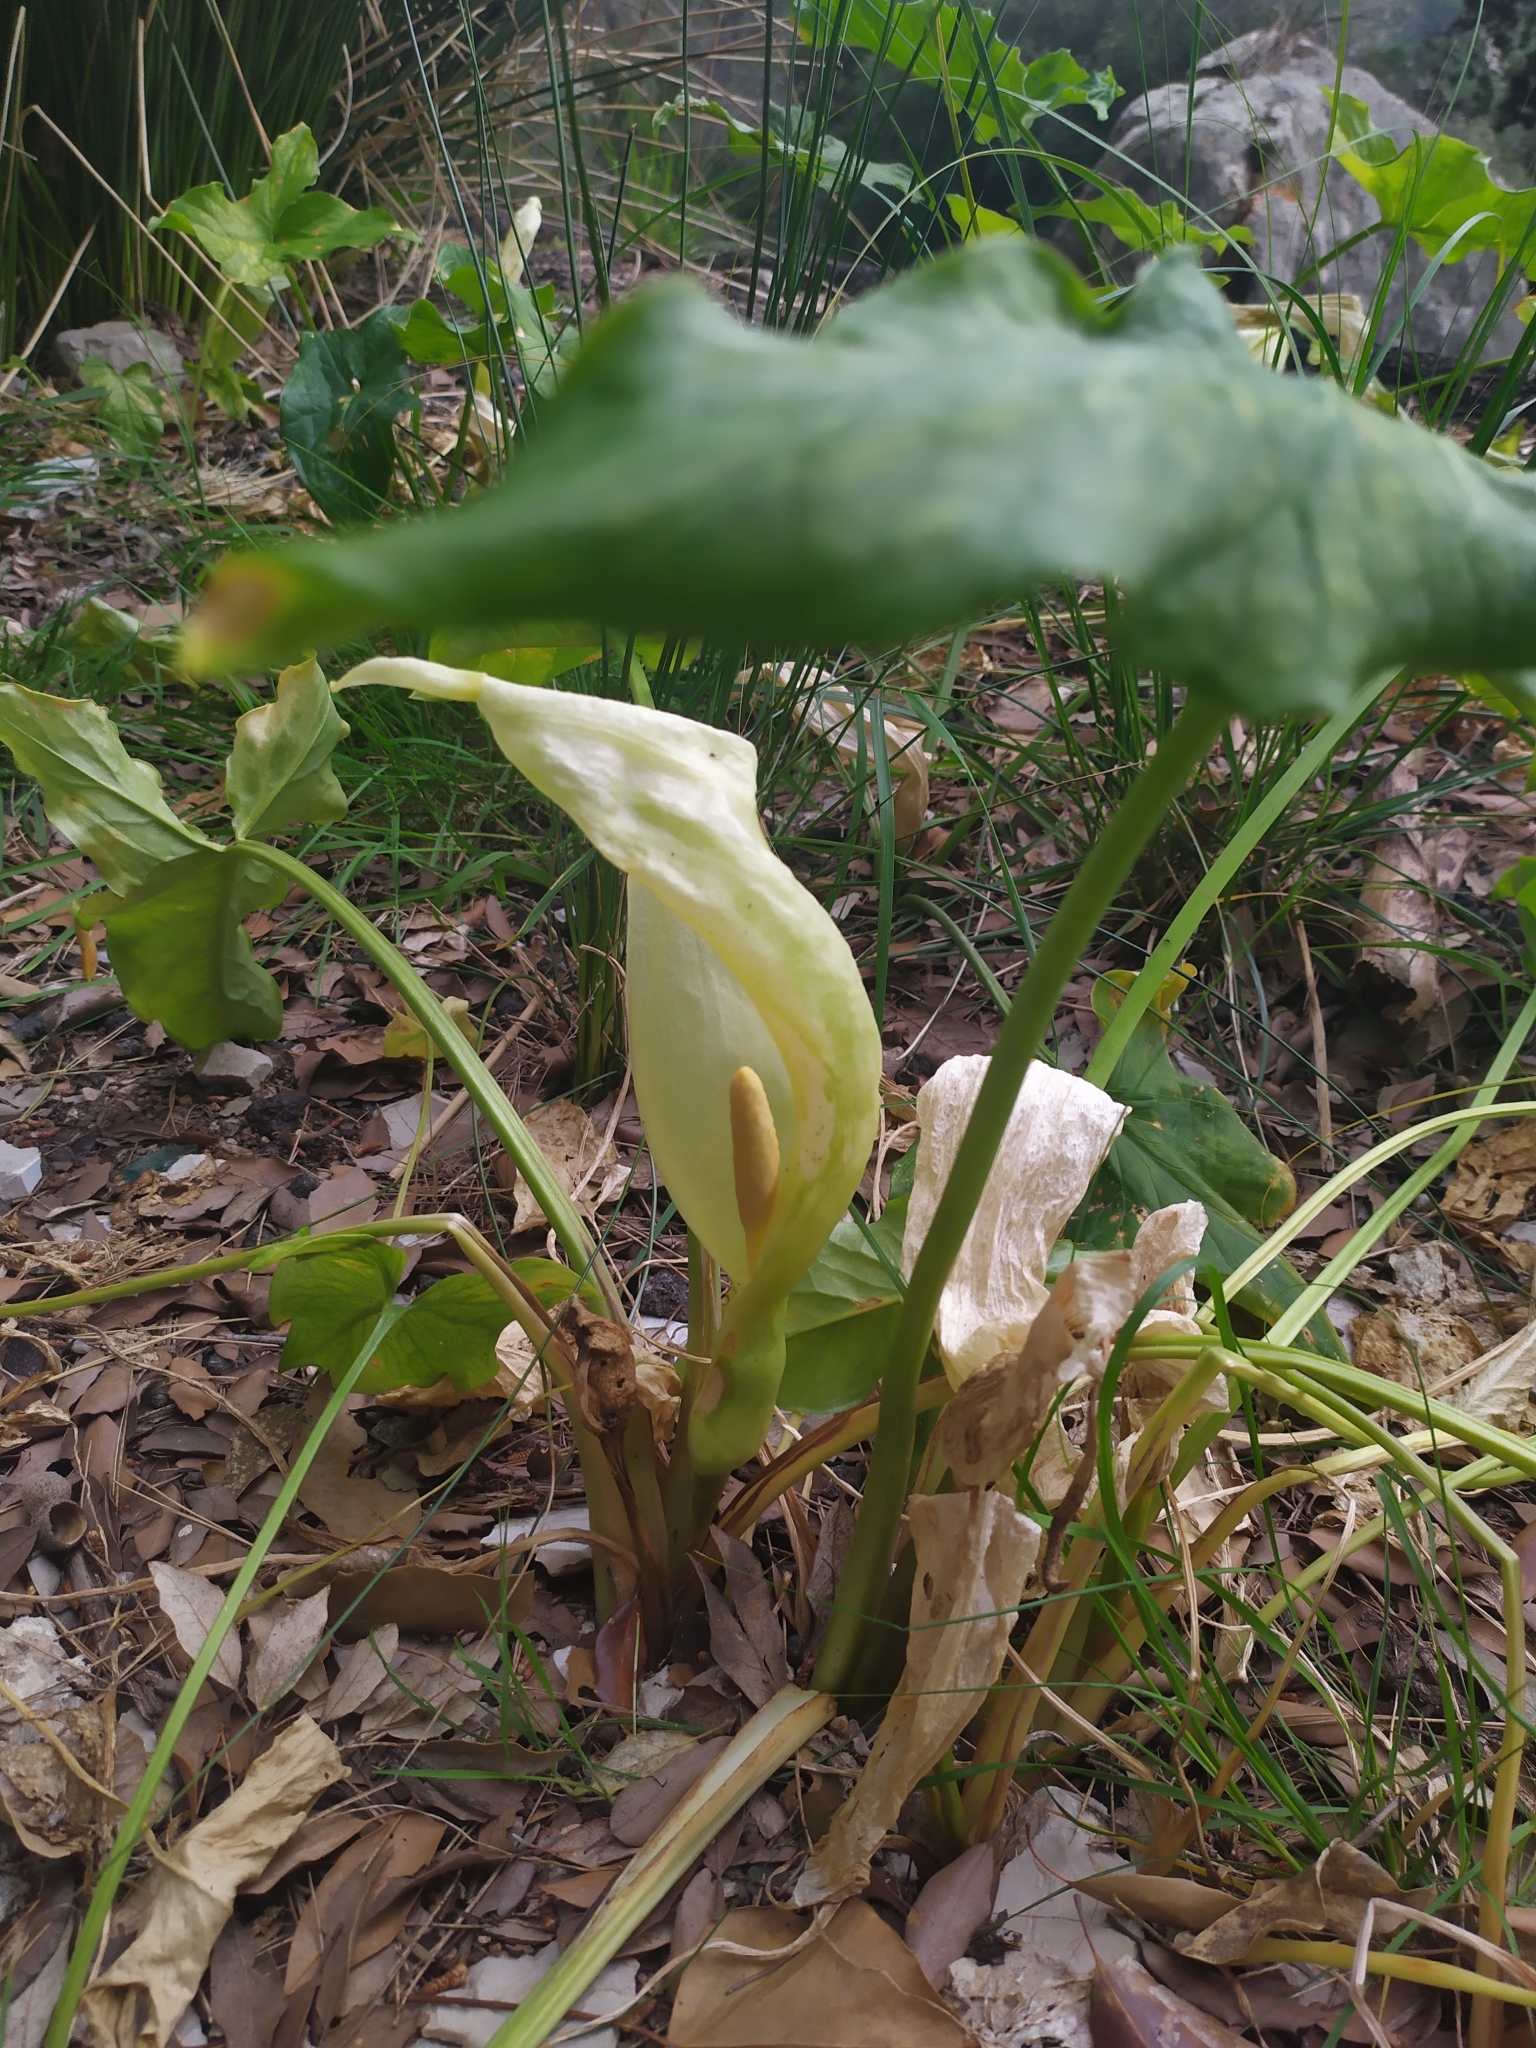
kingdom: Plantae
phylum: Tracheophyta
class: Liliopsida
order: Alismatales
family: Araceae
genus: Arum
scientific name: Arum italicum
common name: Italian lords-and-ladies
